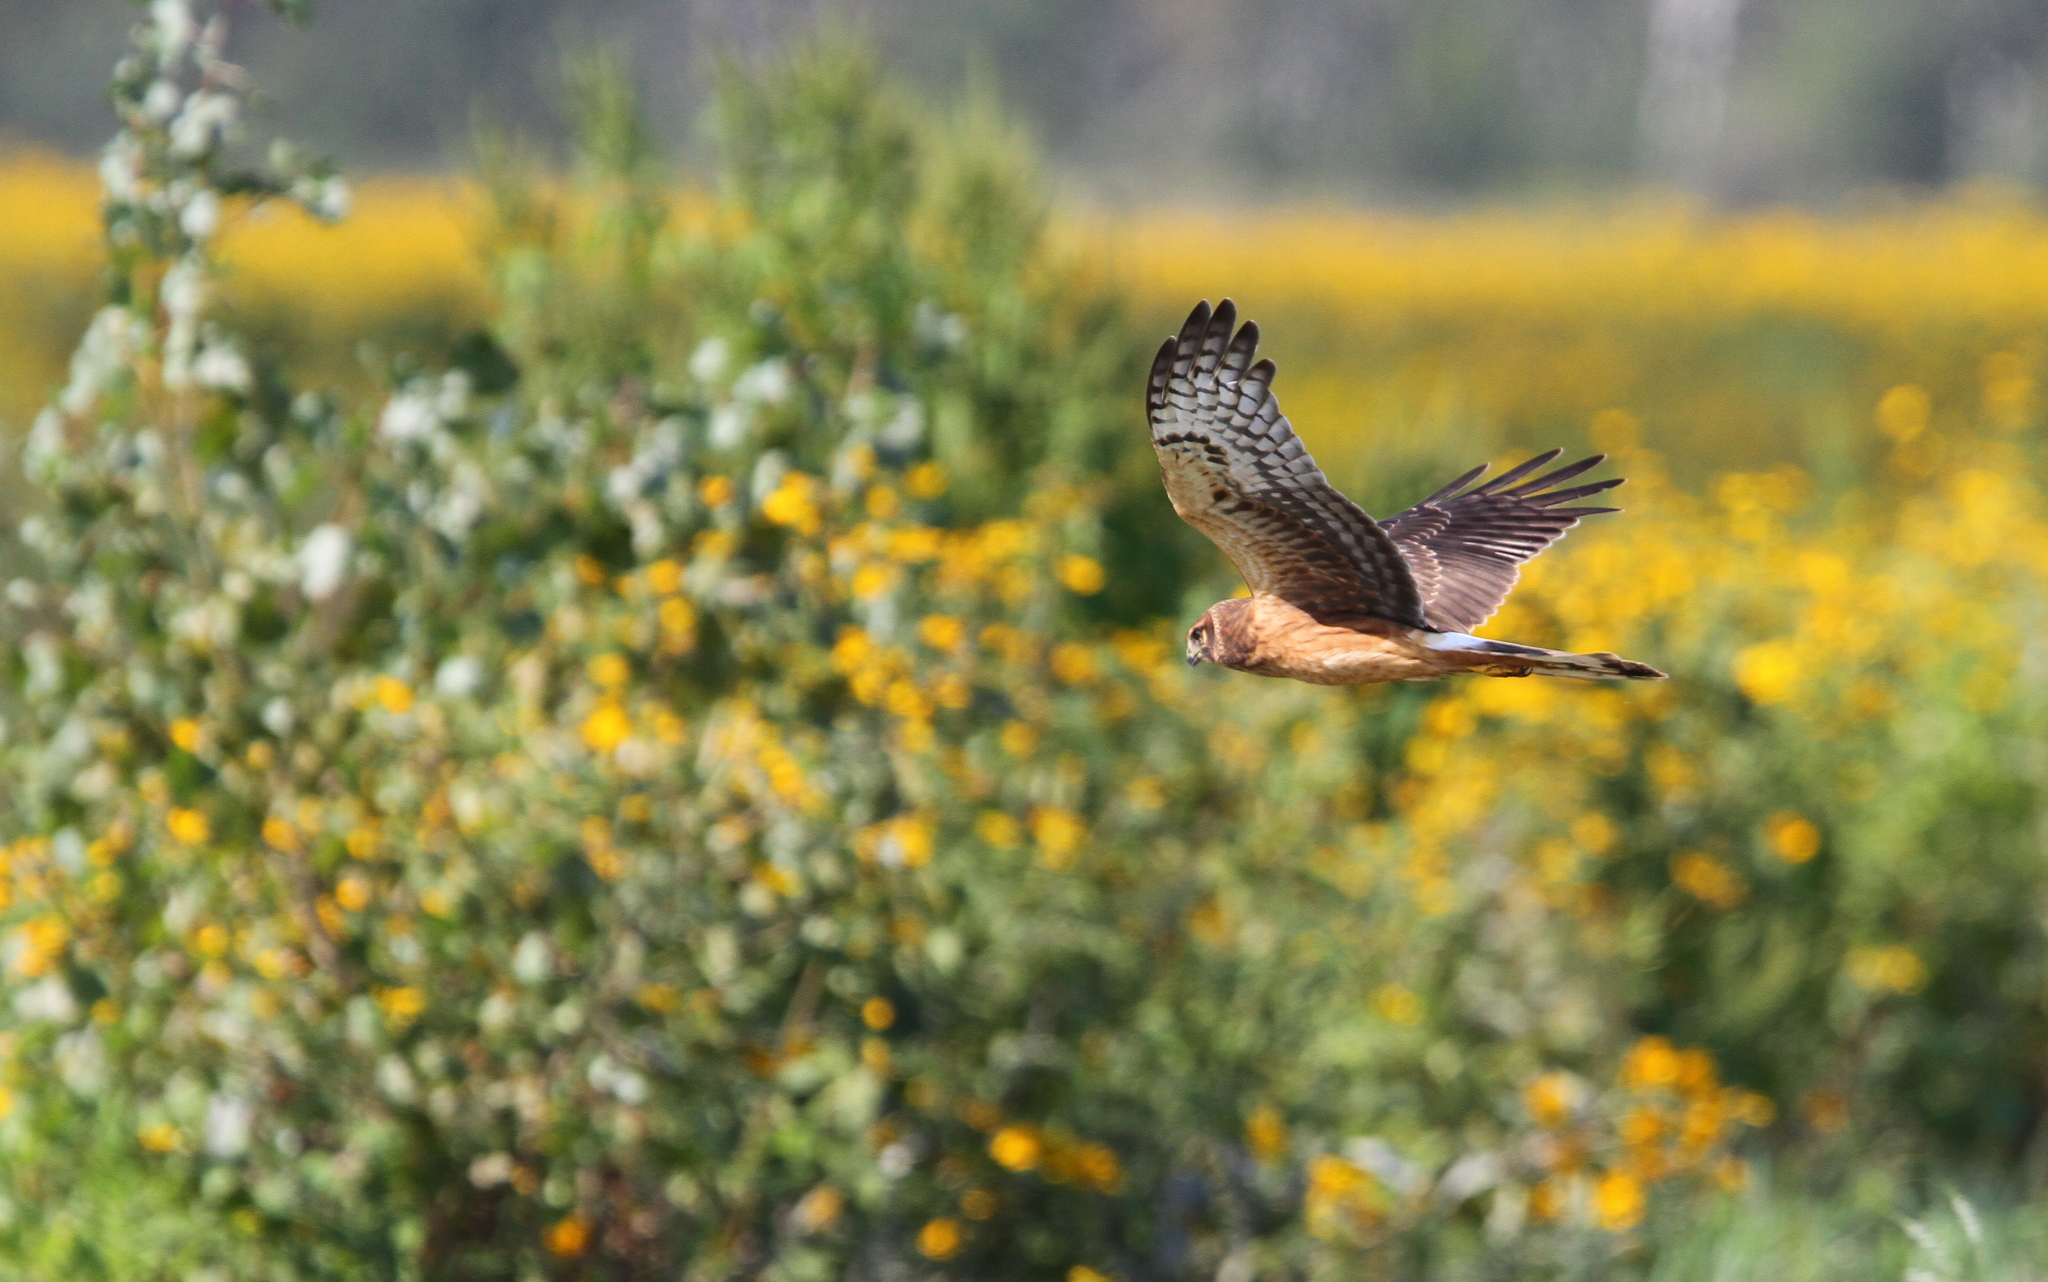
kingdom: Animalia
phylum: Chordata
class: Aves
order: Accipitriformes
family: Accipitridae
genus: Circus
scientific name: Circus cyaneus
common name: Hen harrier
